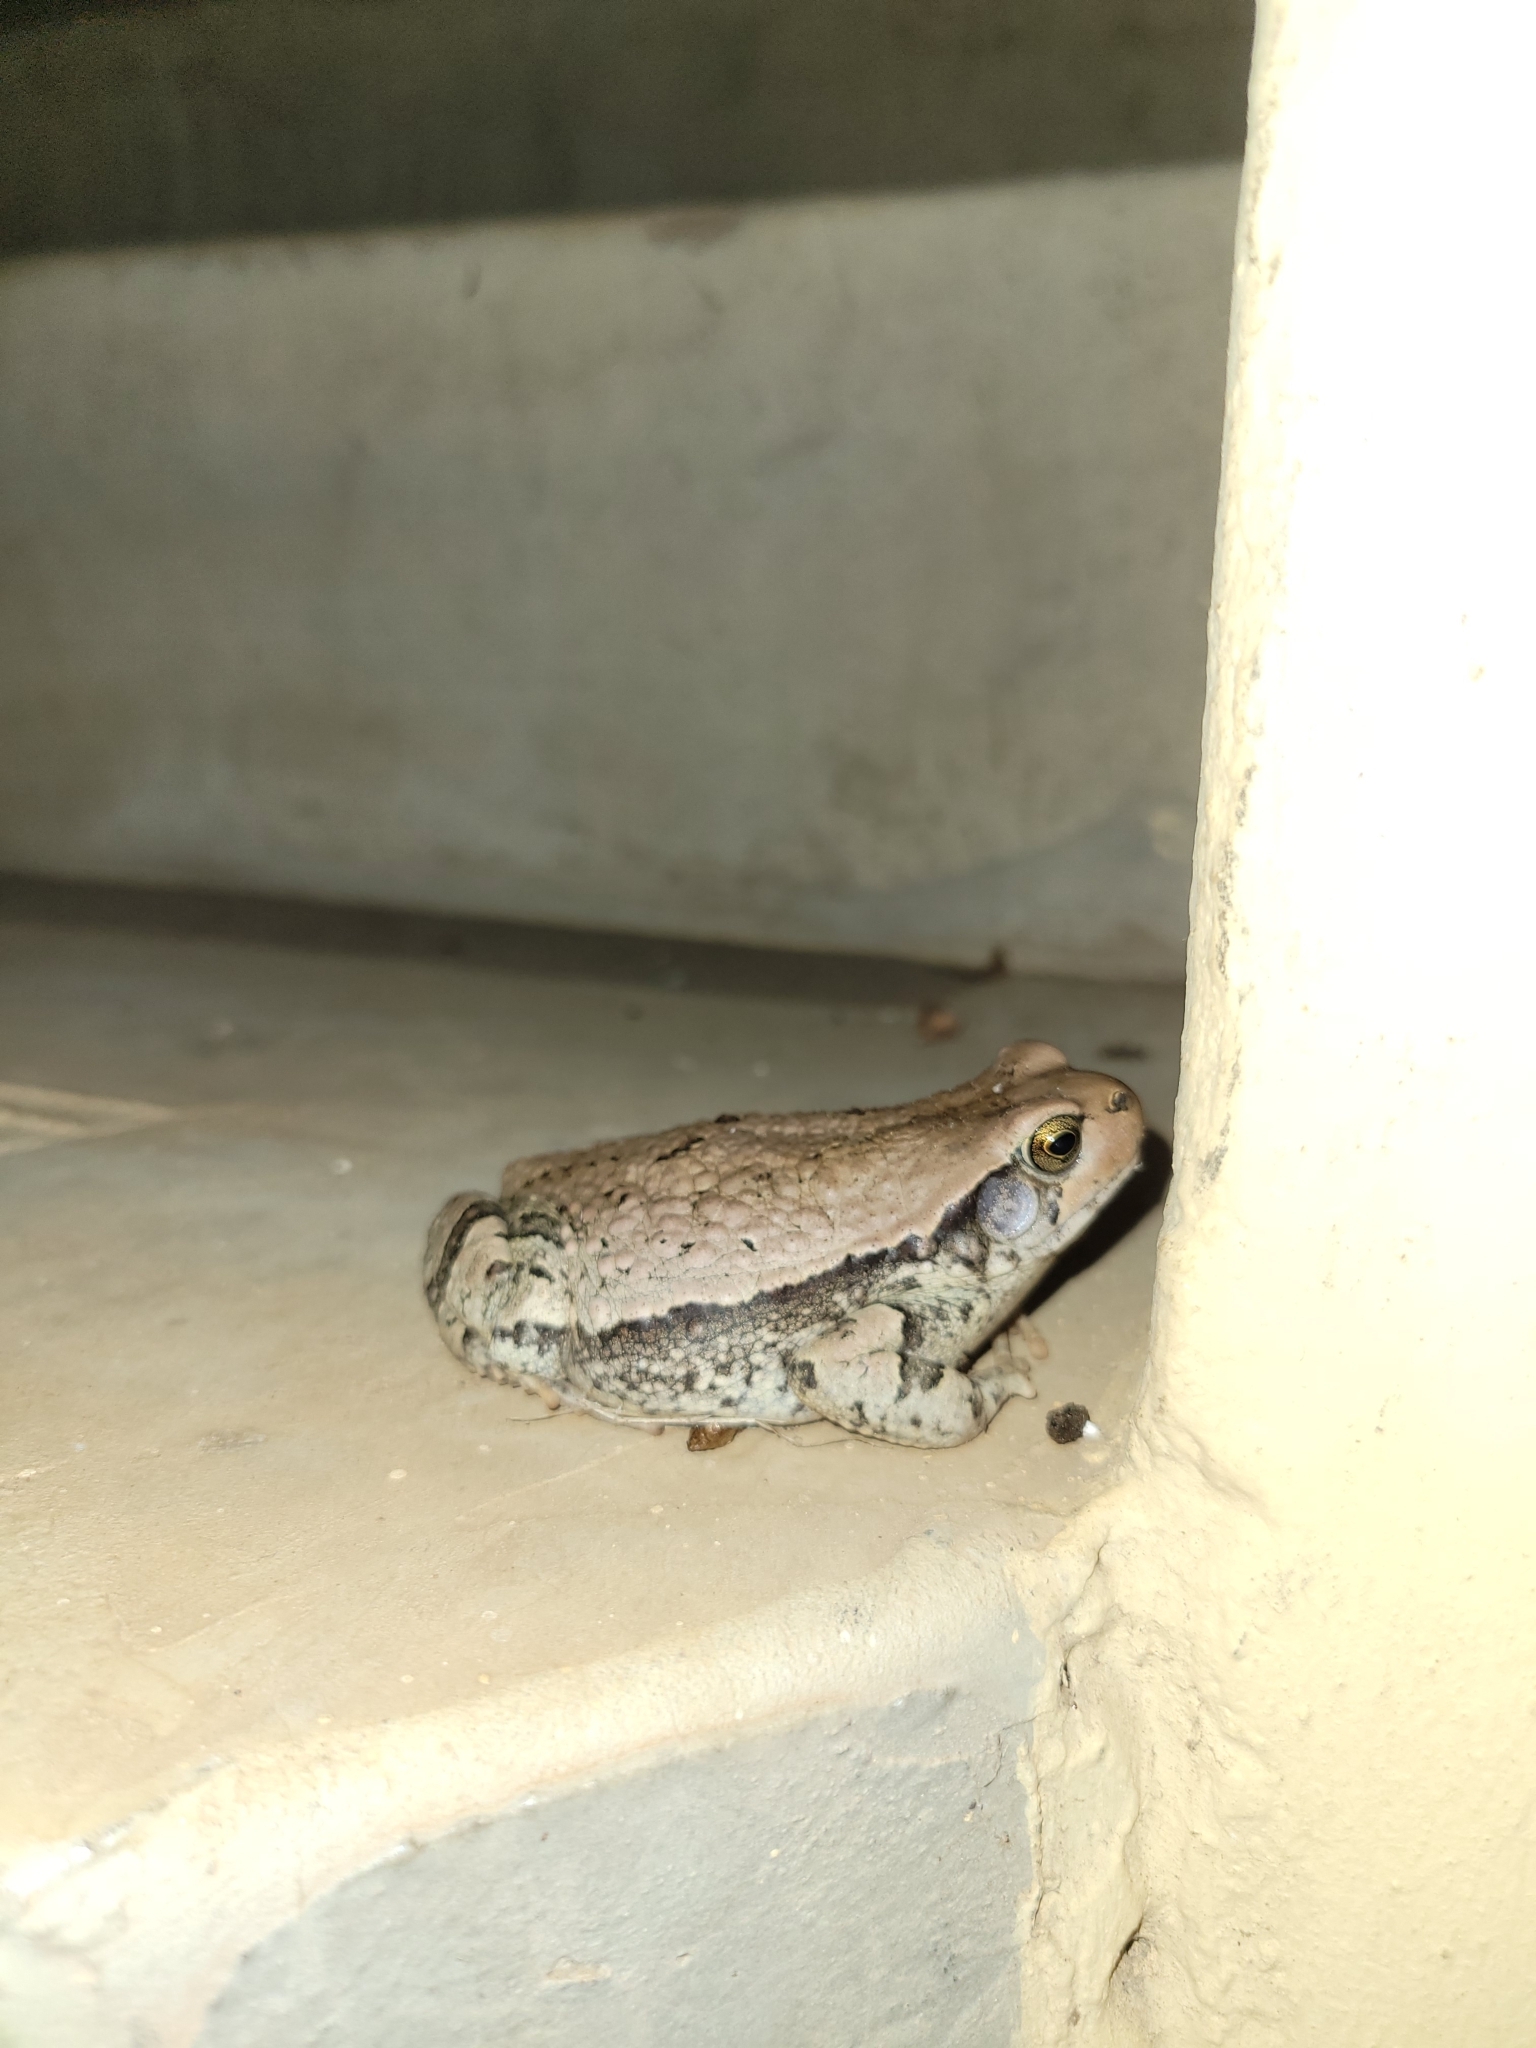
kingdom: Animalia
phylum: Chordata
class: Amphibia
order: Anura
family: Bufonidae
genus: Schismaderma
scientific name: Schismaderma carens
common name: African split-skin toad
